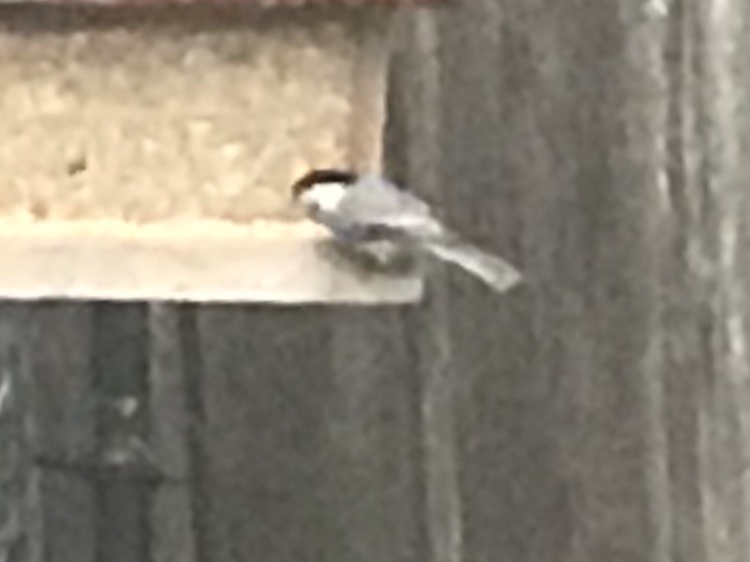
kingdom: Animalia
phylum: Chordata
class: Aves
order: Passeriformes
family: Paridae
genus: Poecile
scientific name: Poecile carolinensis
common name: Carolina chickadee
